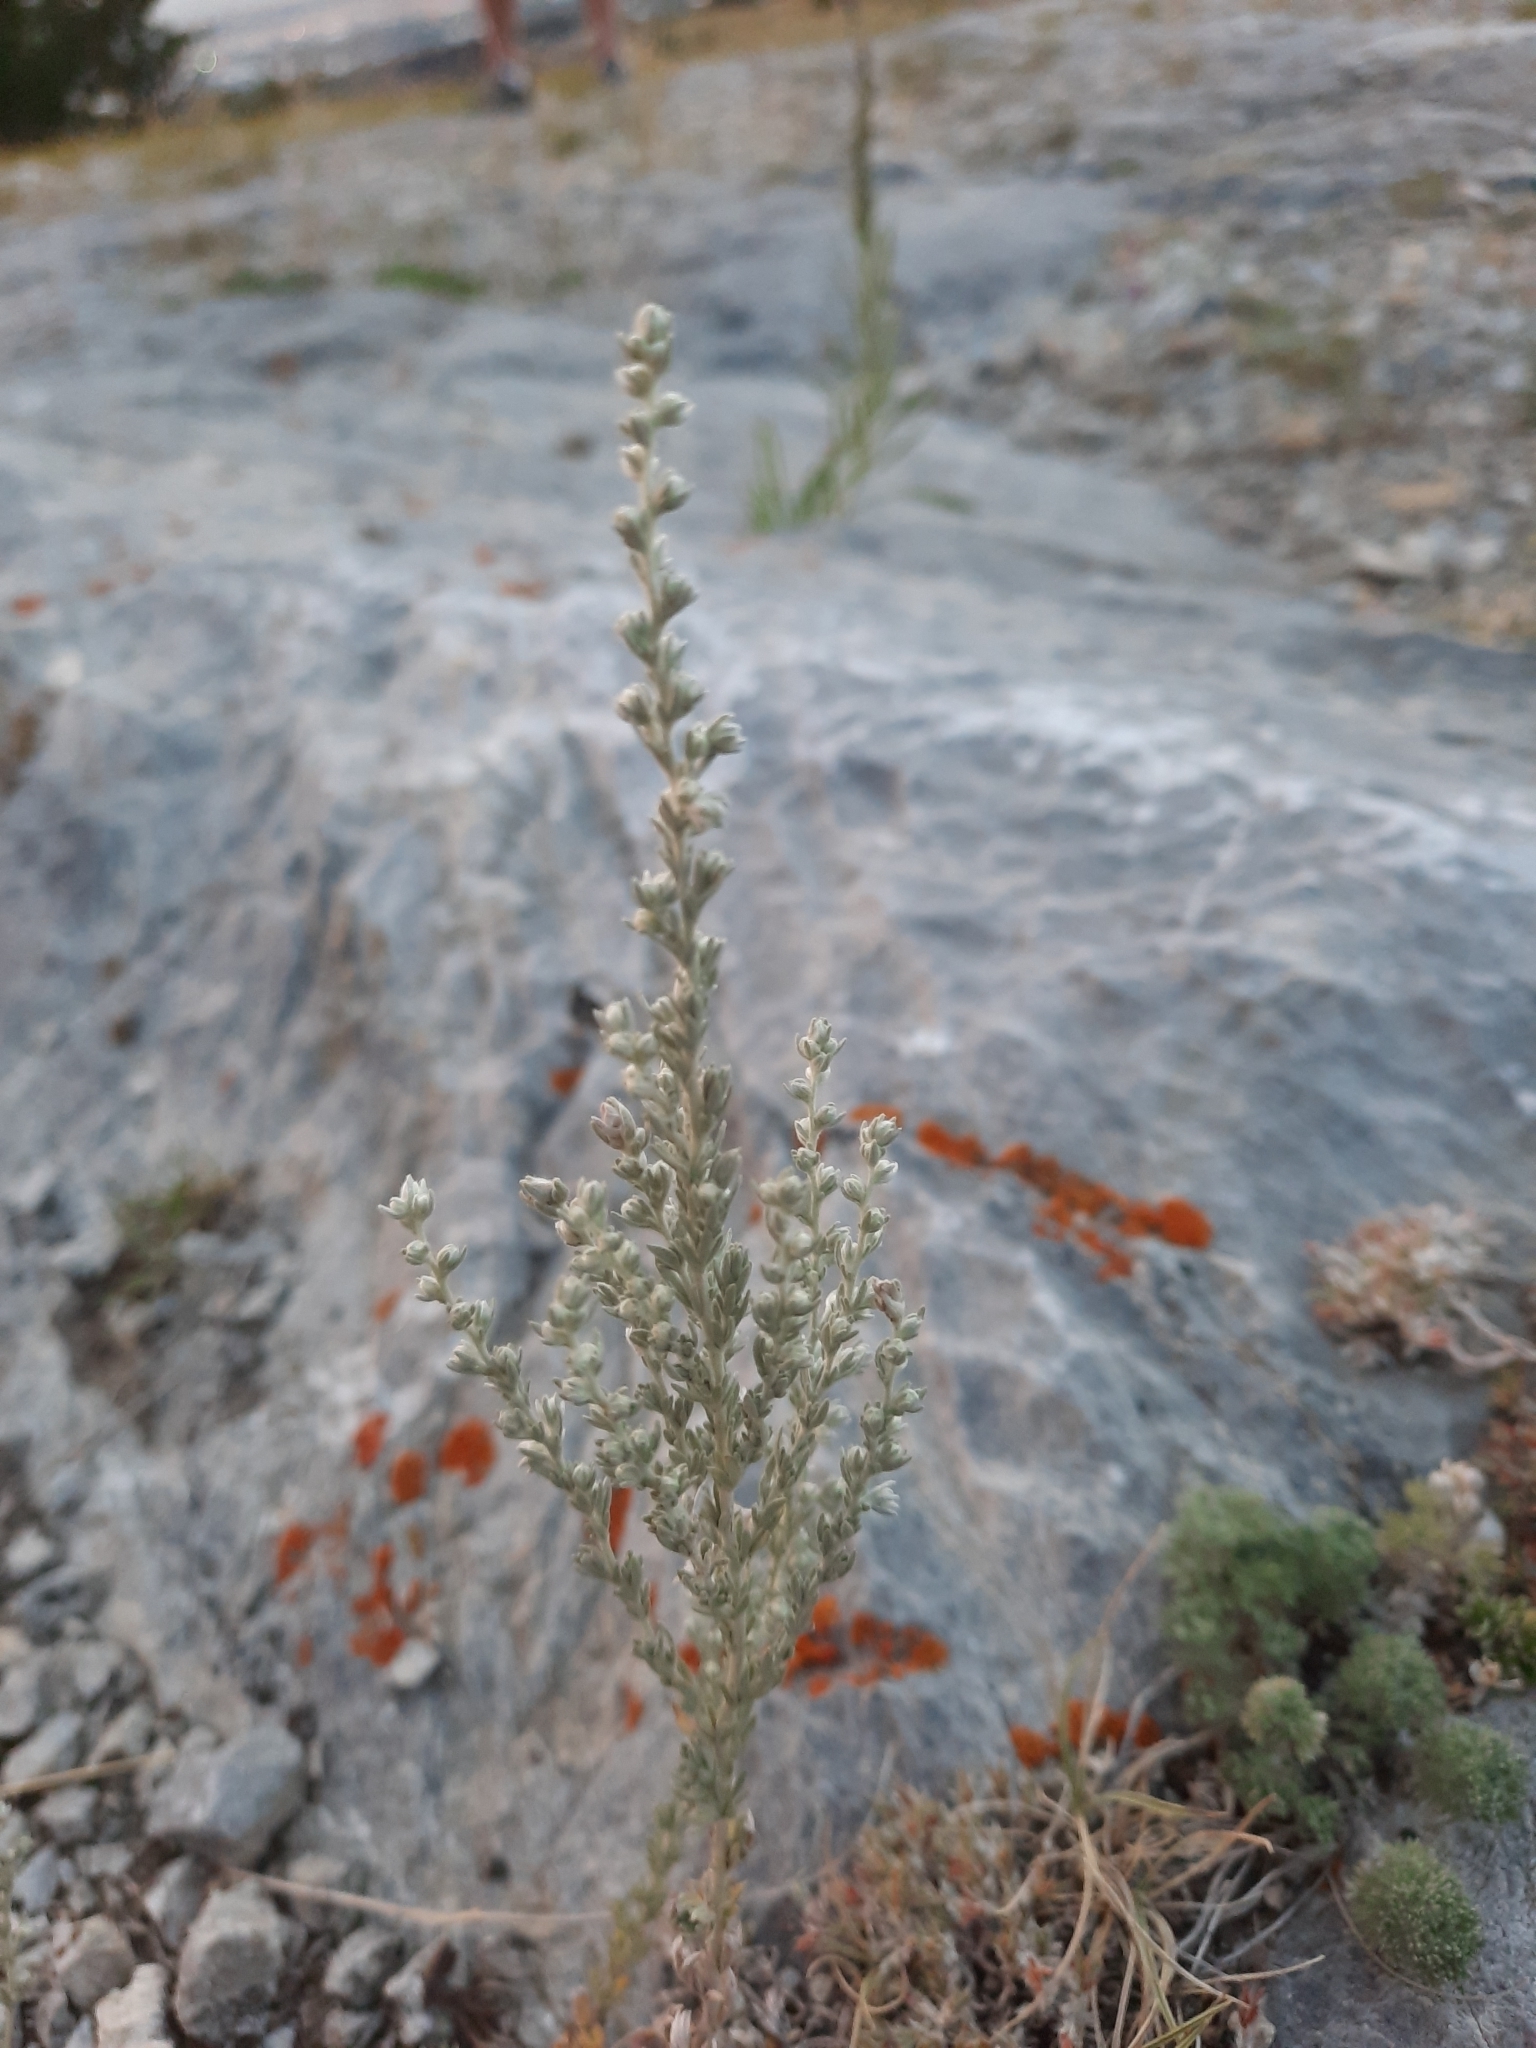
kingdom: Plantae
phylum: Tracheophyta
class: Magnoliopsida
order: Asterales
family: Asteraceae
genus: Artemisia
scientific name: Artemisia frigida
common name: Prairie sagewort
